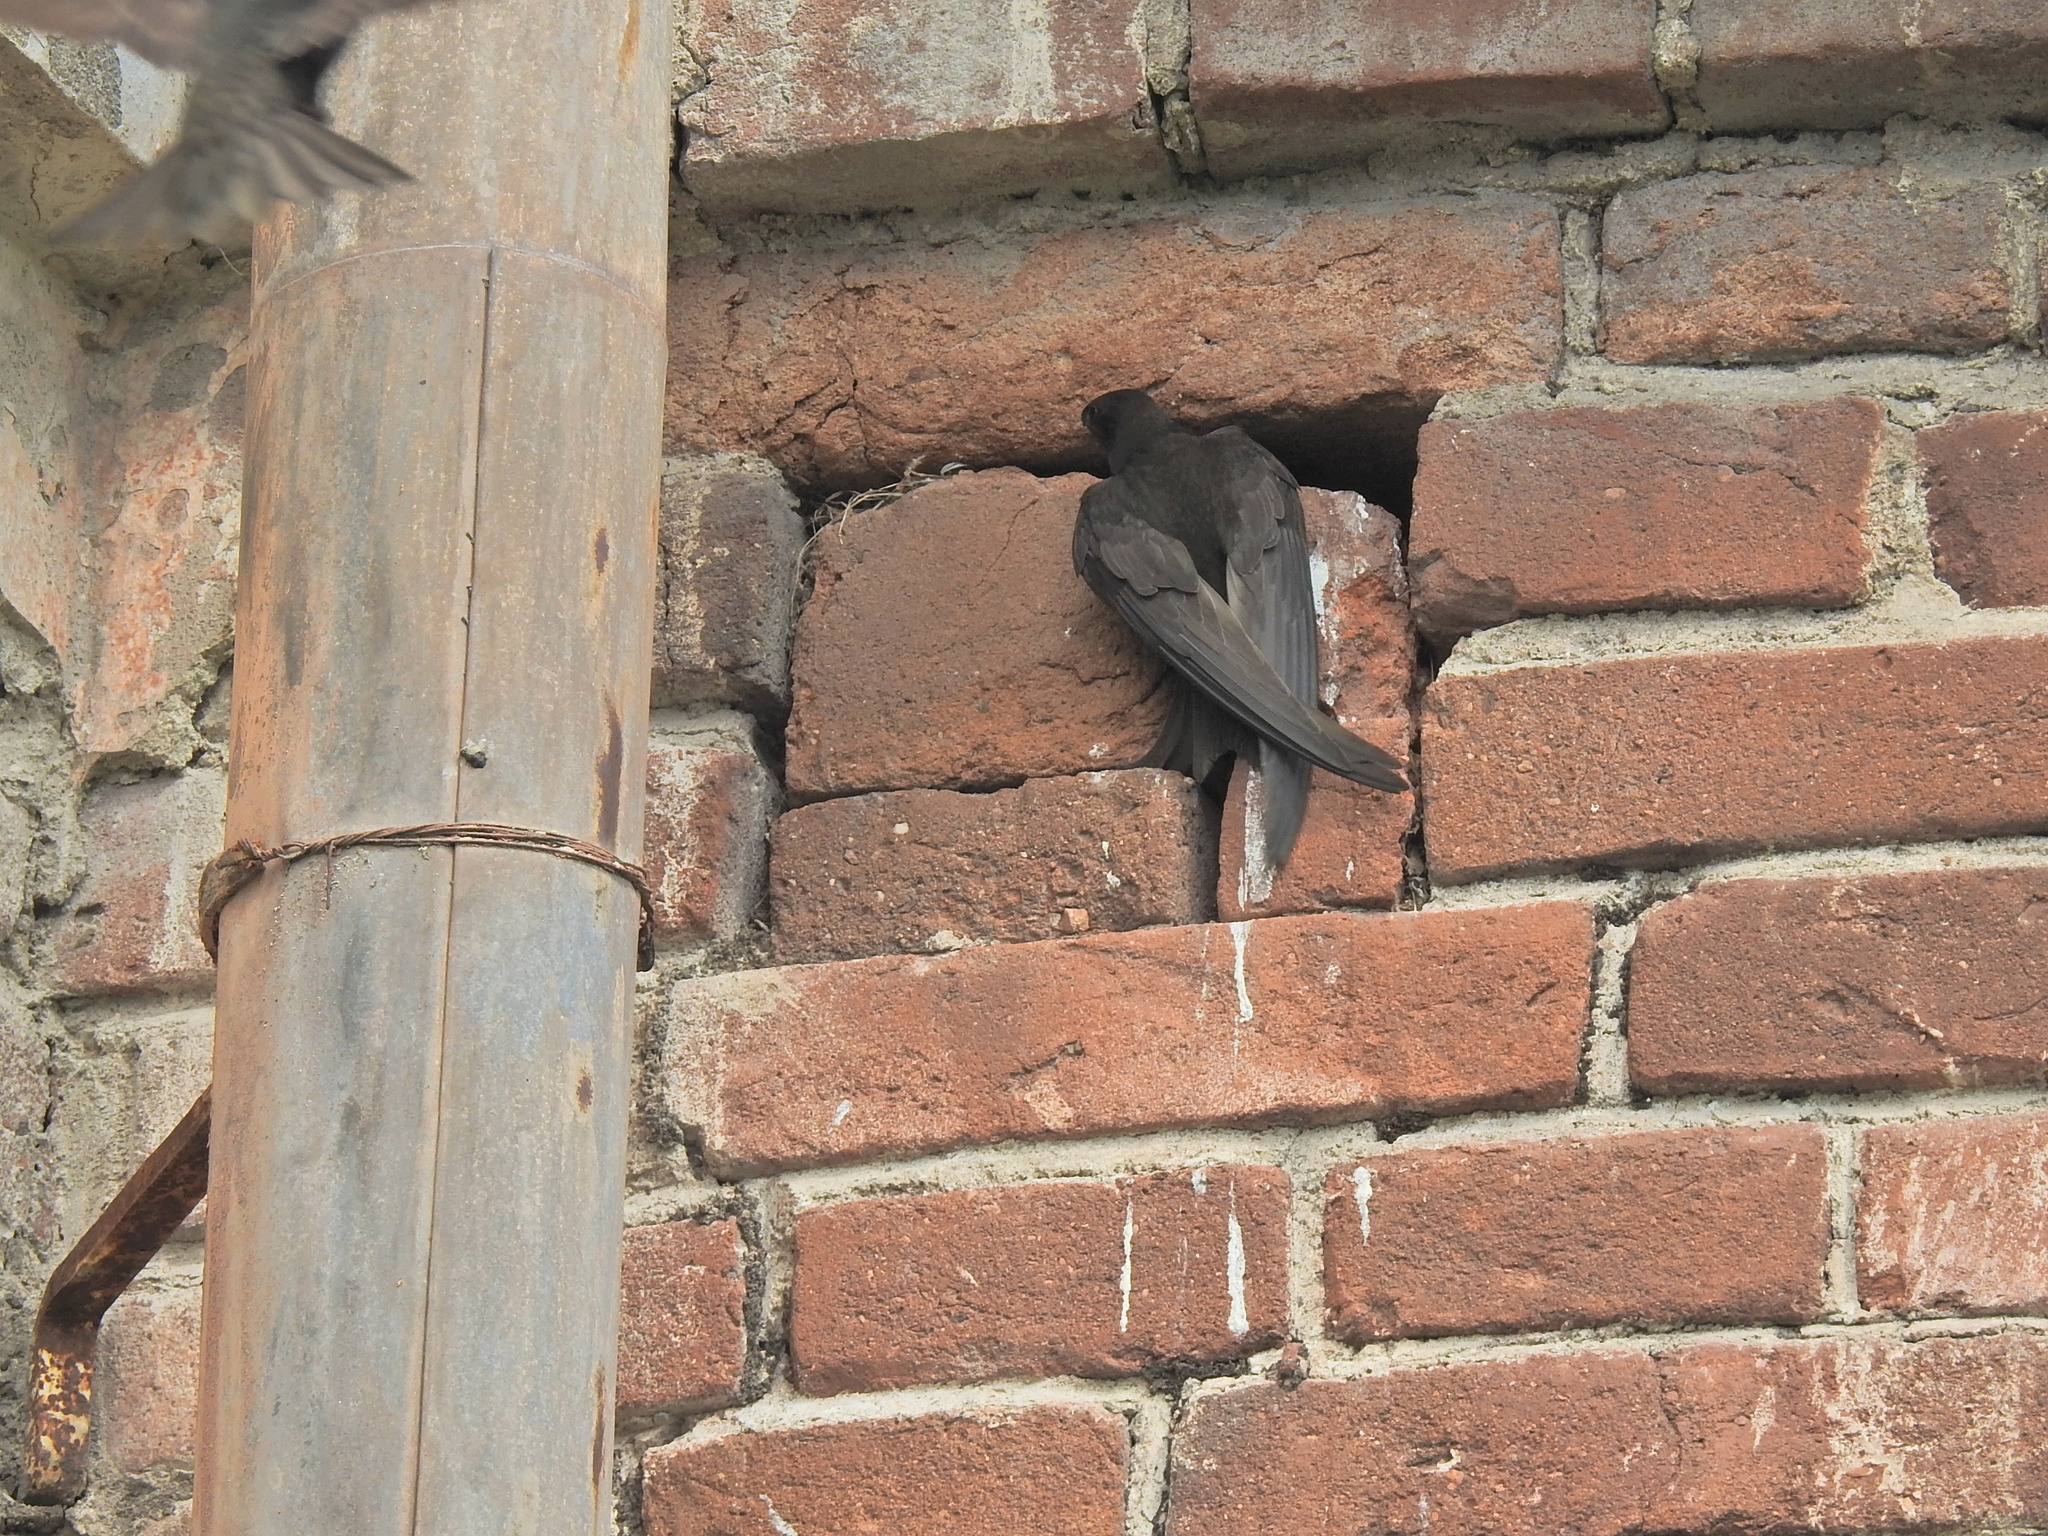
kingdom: Animalia
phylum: Chordata
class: Aves
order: Apodiformes
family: Apodidae
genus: Apus
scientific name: Apus apus
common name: Common swift
